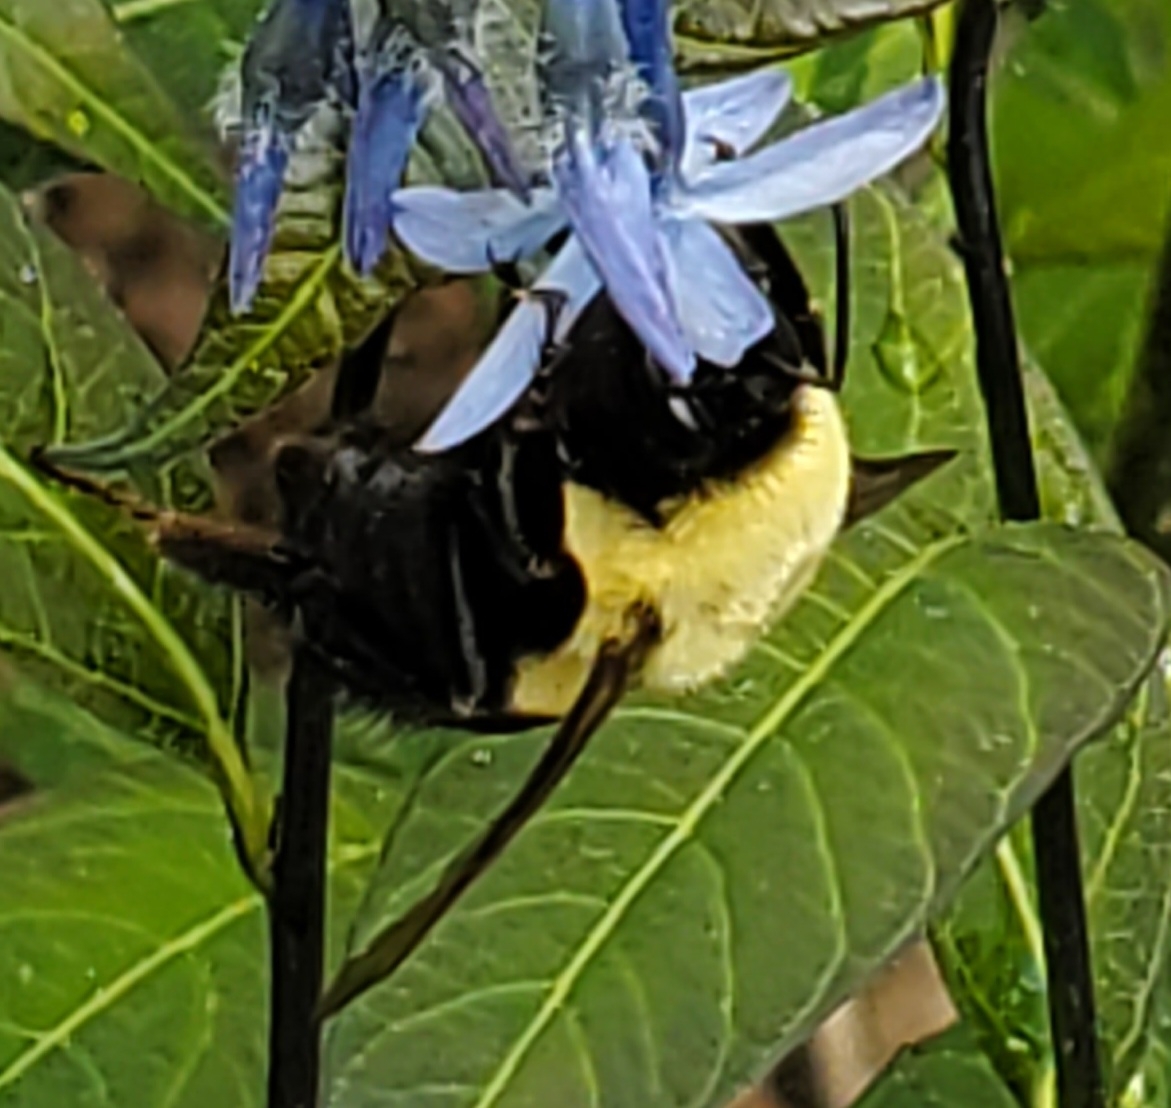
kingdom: Animalia
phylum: Arthropoda
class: Insecta
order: Hymenoptera
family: Apidae
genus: Bombus
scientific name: Bombus impatiens
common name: Common eastern bumble bee
